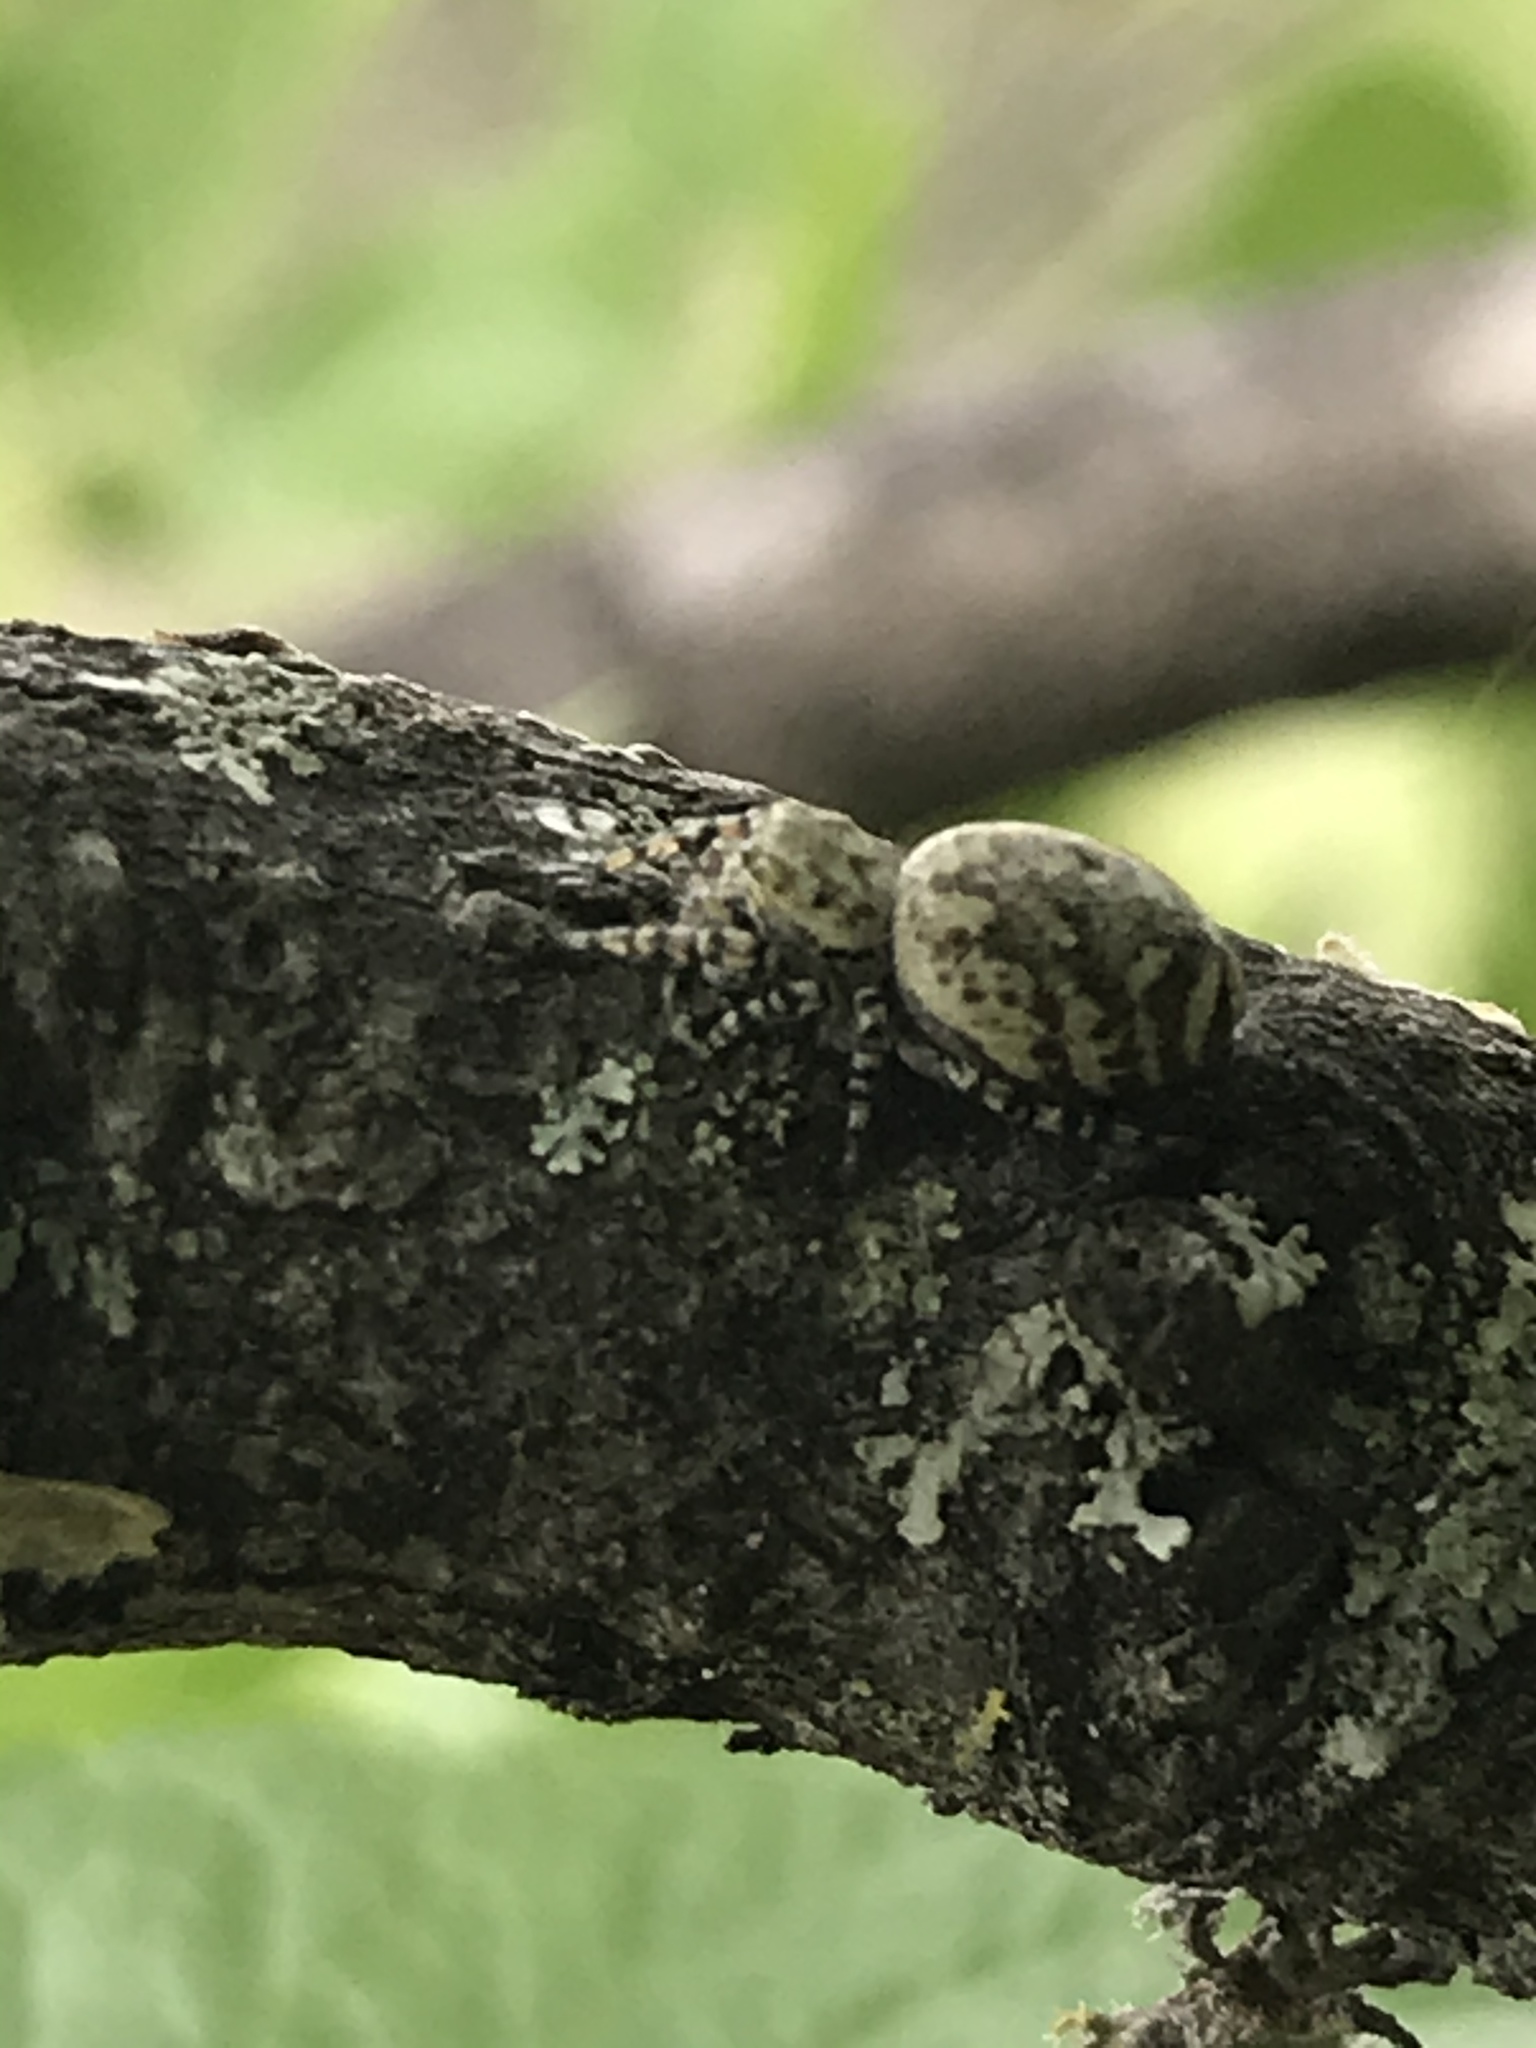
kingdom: Animalia
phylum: Arthropoda
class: Arachnida
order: Araneae
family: Salticidae
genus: Pelegrina
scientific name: Pelegrina galathea
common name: Jumping spiders
